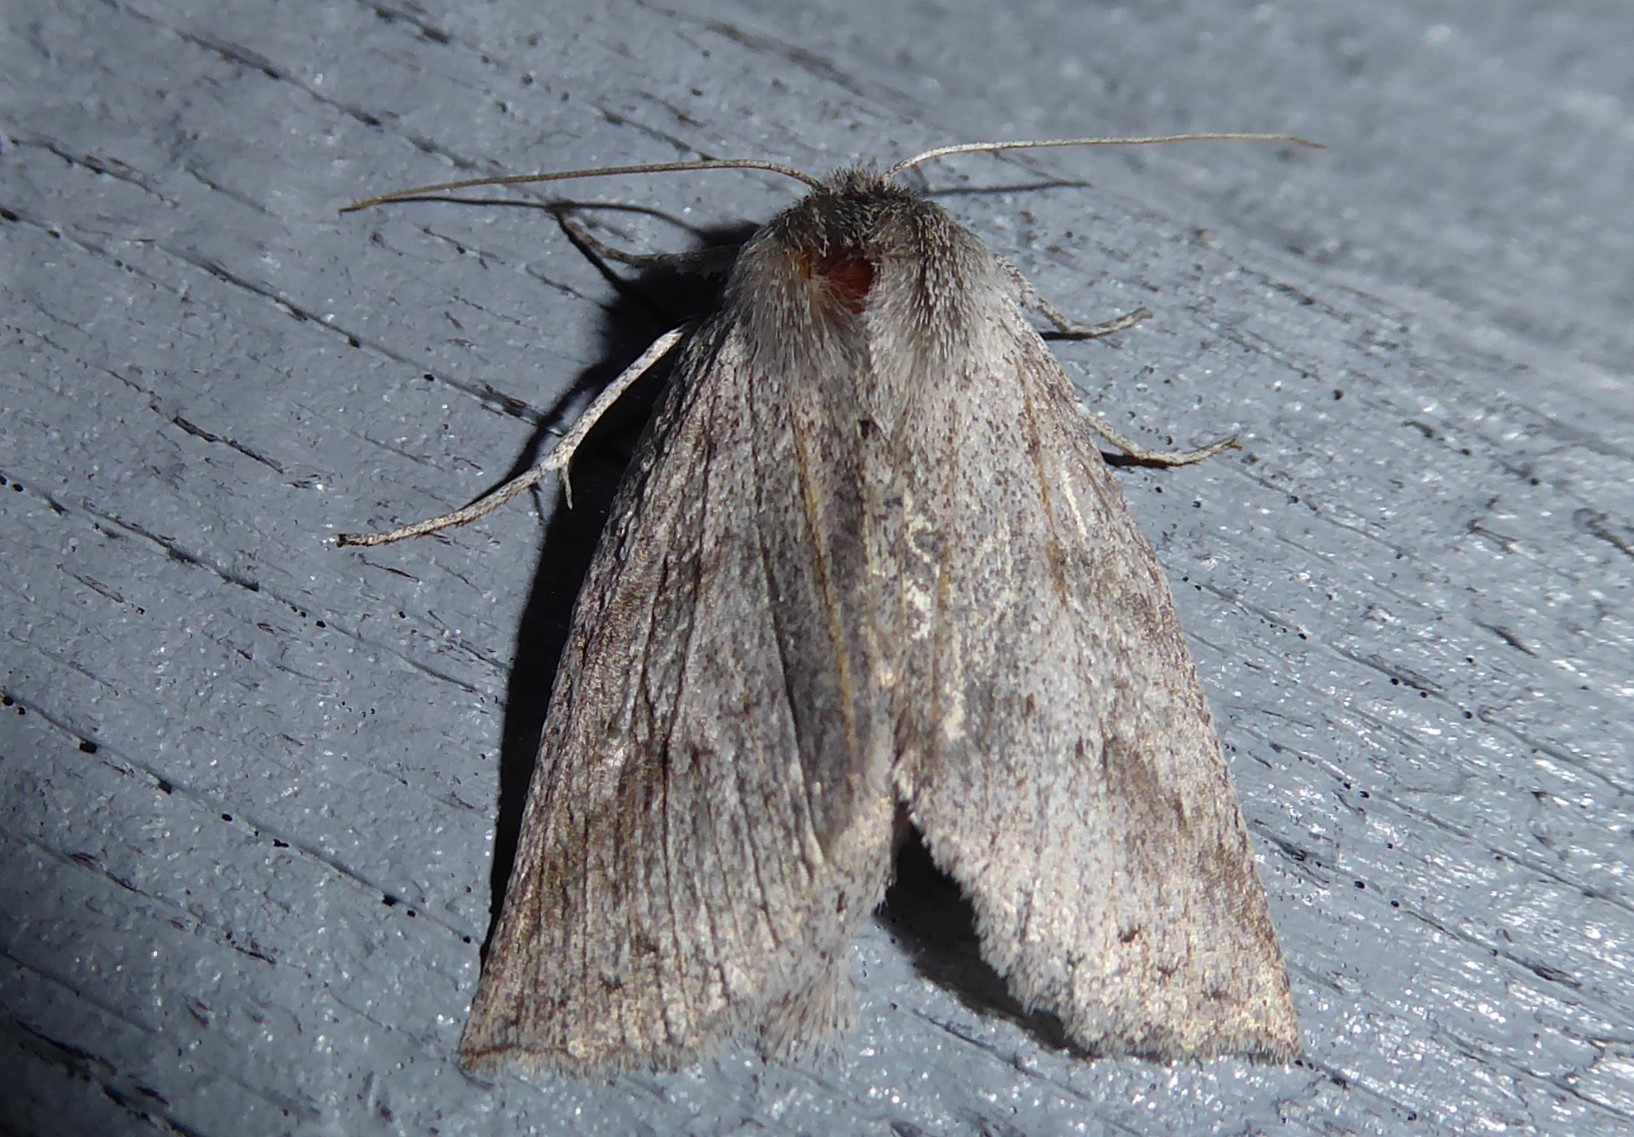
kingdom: Animalia
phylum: Arthropoda
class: Insecta
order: Lepidoptera
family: Geometridae
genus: Declana
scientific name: Declana leptomera
